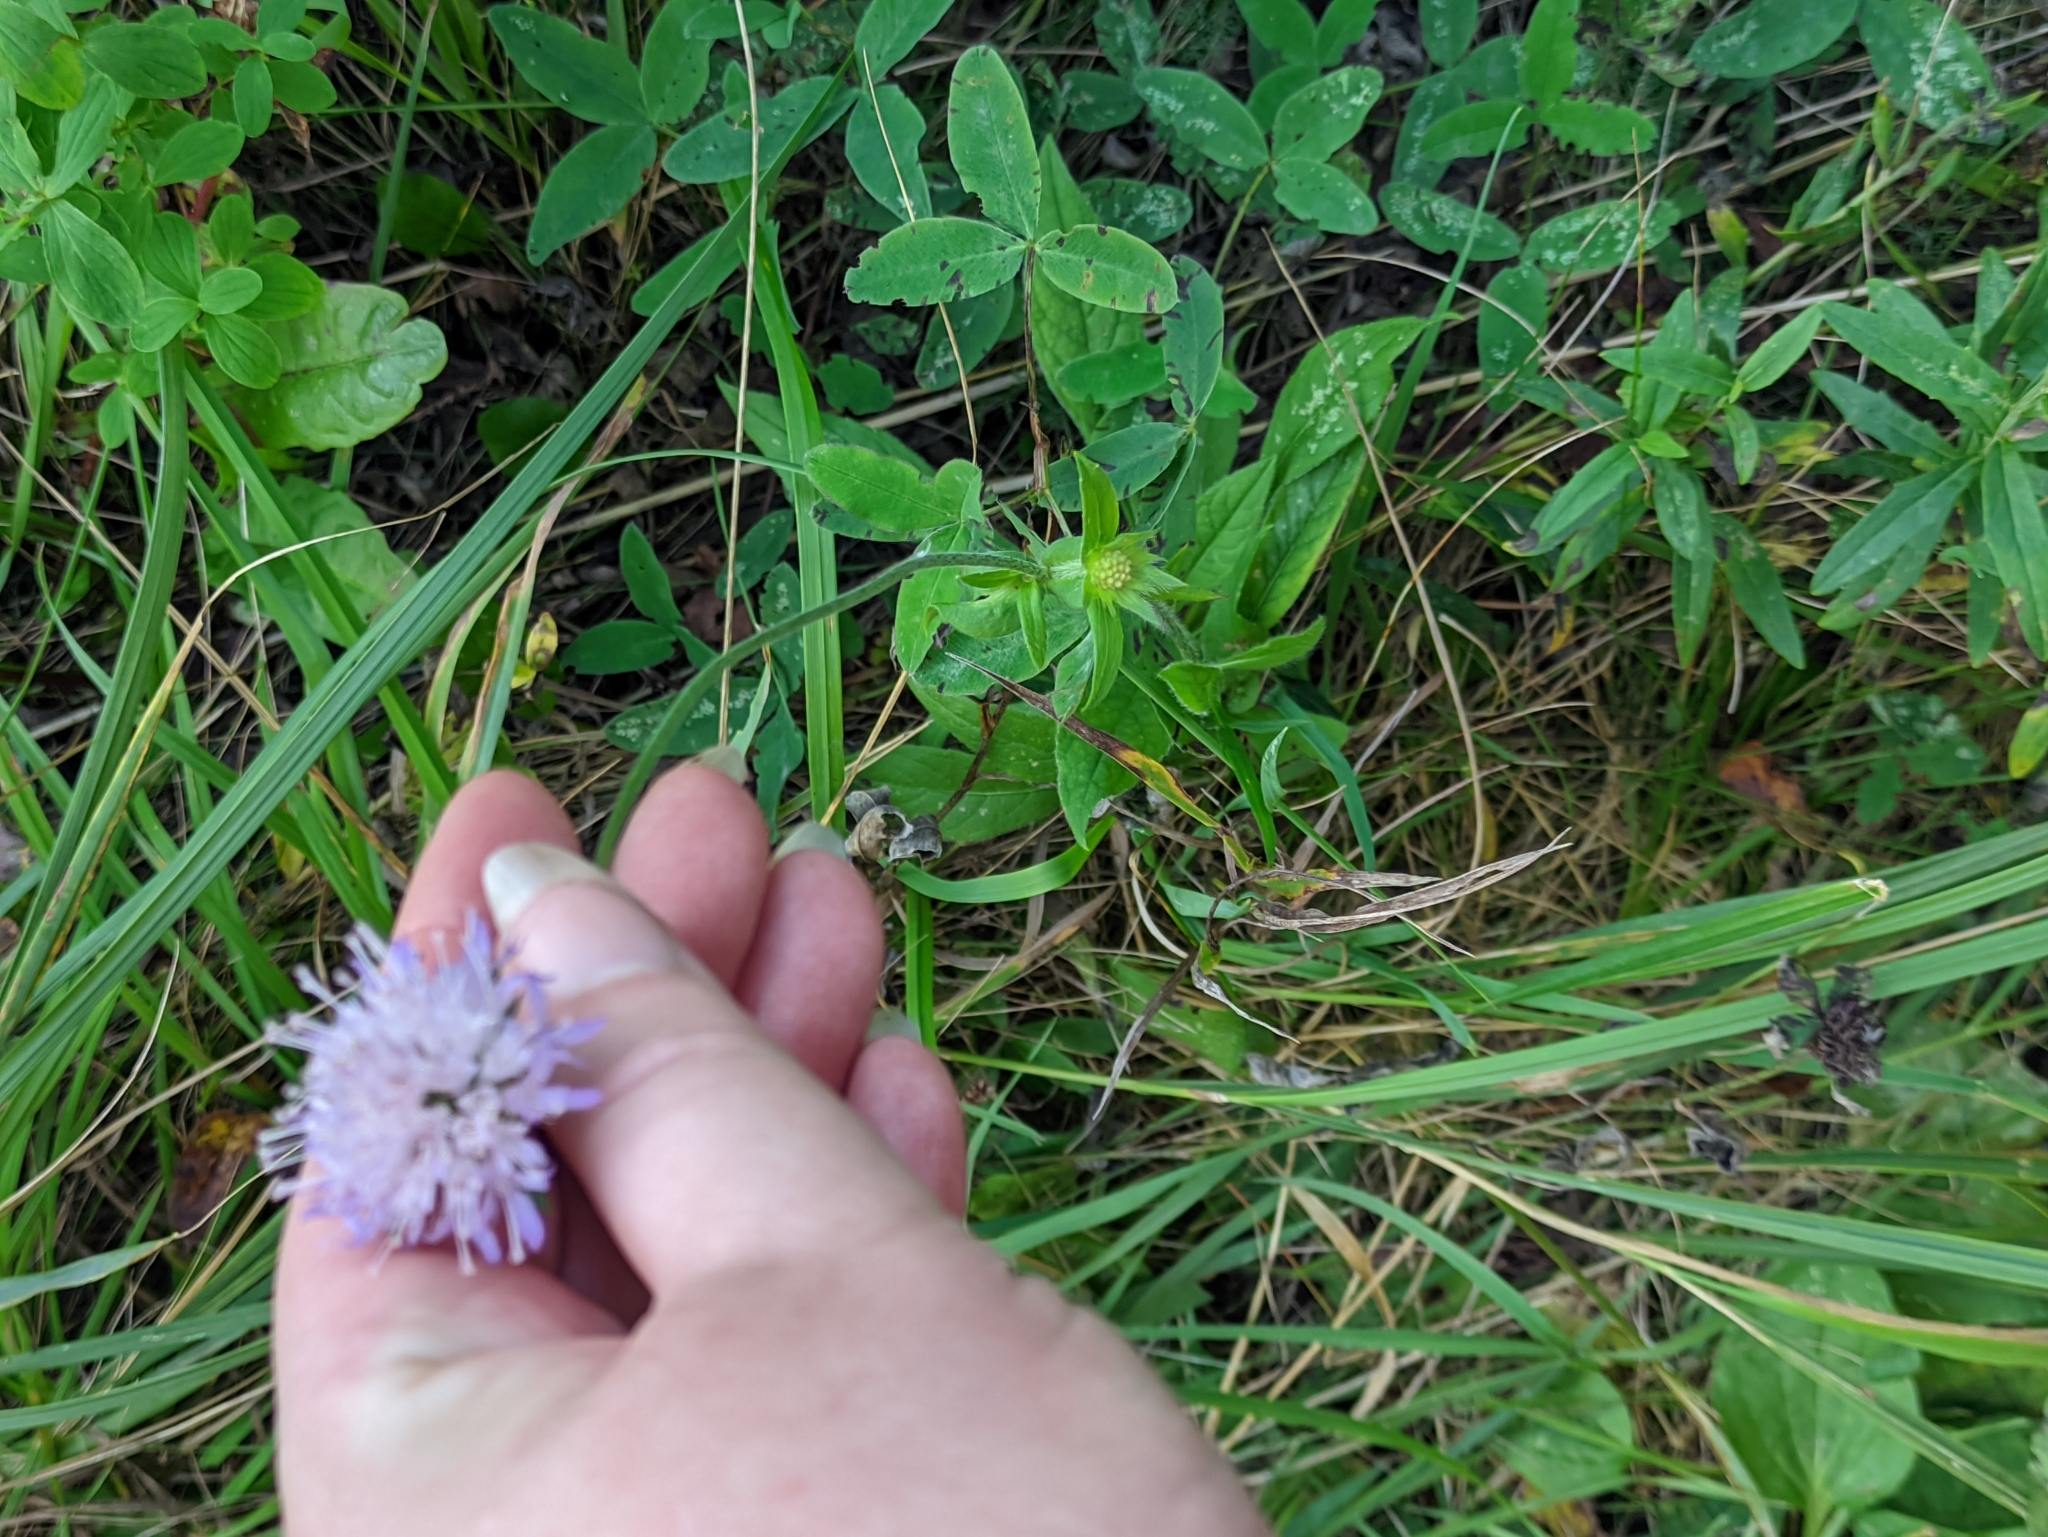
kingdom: Plantae
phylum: Tracheophyta
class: Magnoliopsida
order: Dipsacales
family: Caprifoliaceae
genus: Knautia
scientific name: Knautia arvensis
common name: Field scabiosa
